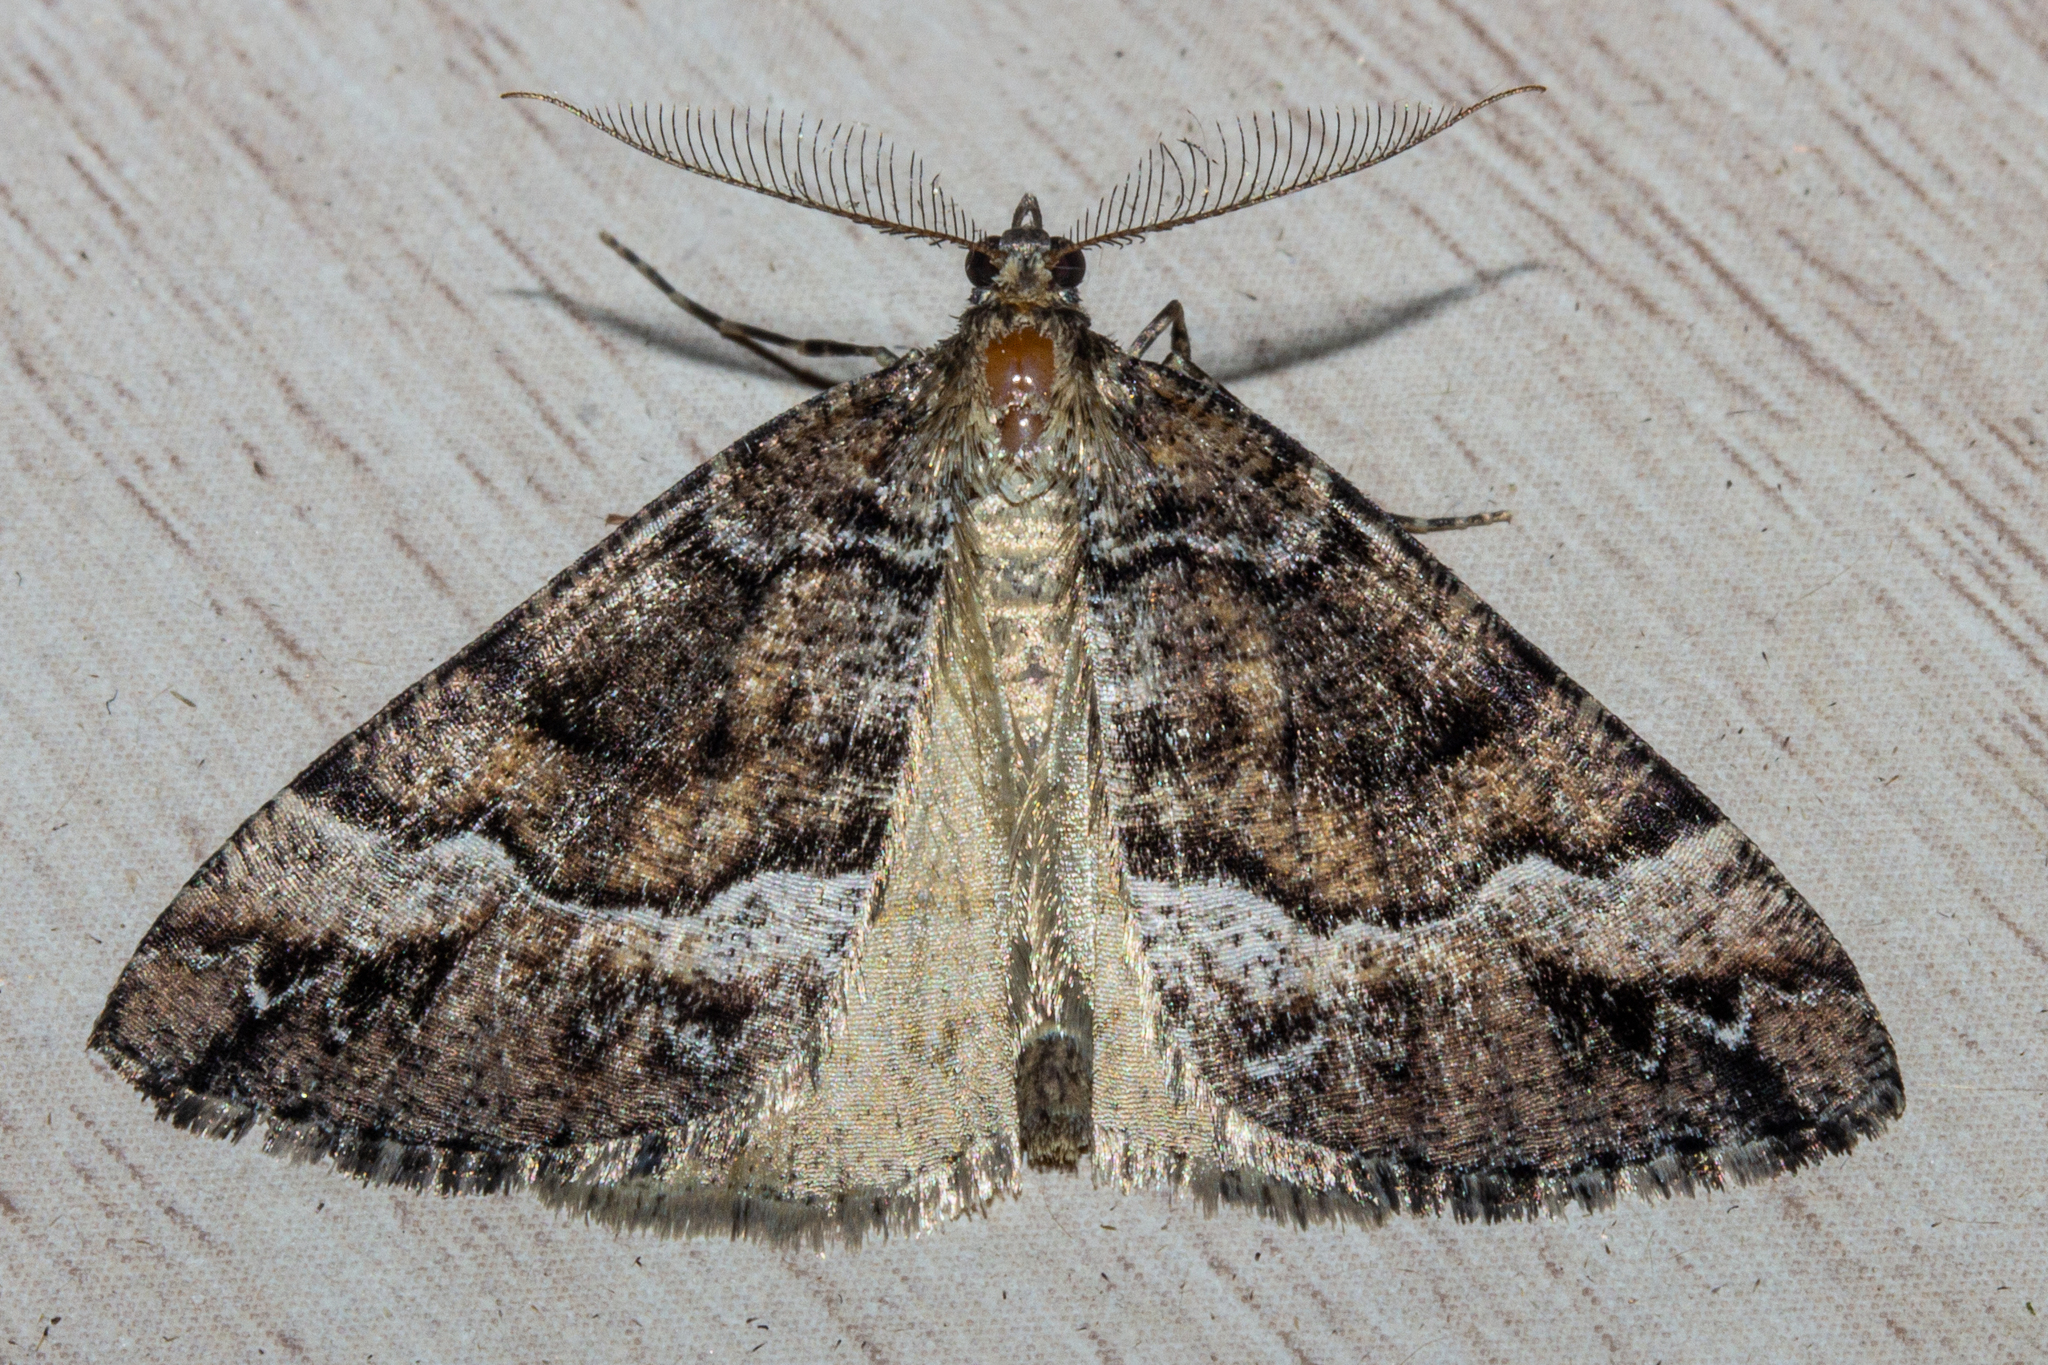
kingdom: Animalia
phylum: Arthropoda
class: Insecta
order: Lepidoptera
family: Geometridae
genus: Pseudocoremia
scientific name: Pseudocoremia colpogramma
